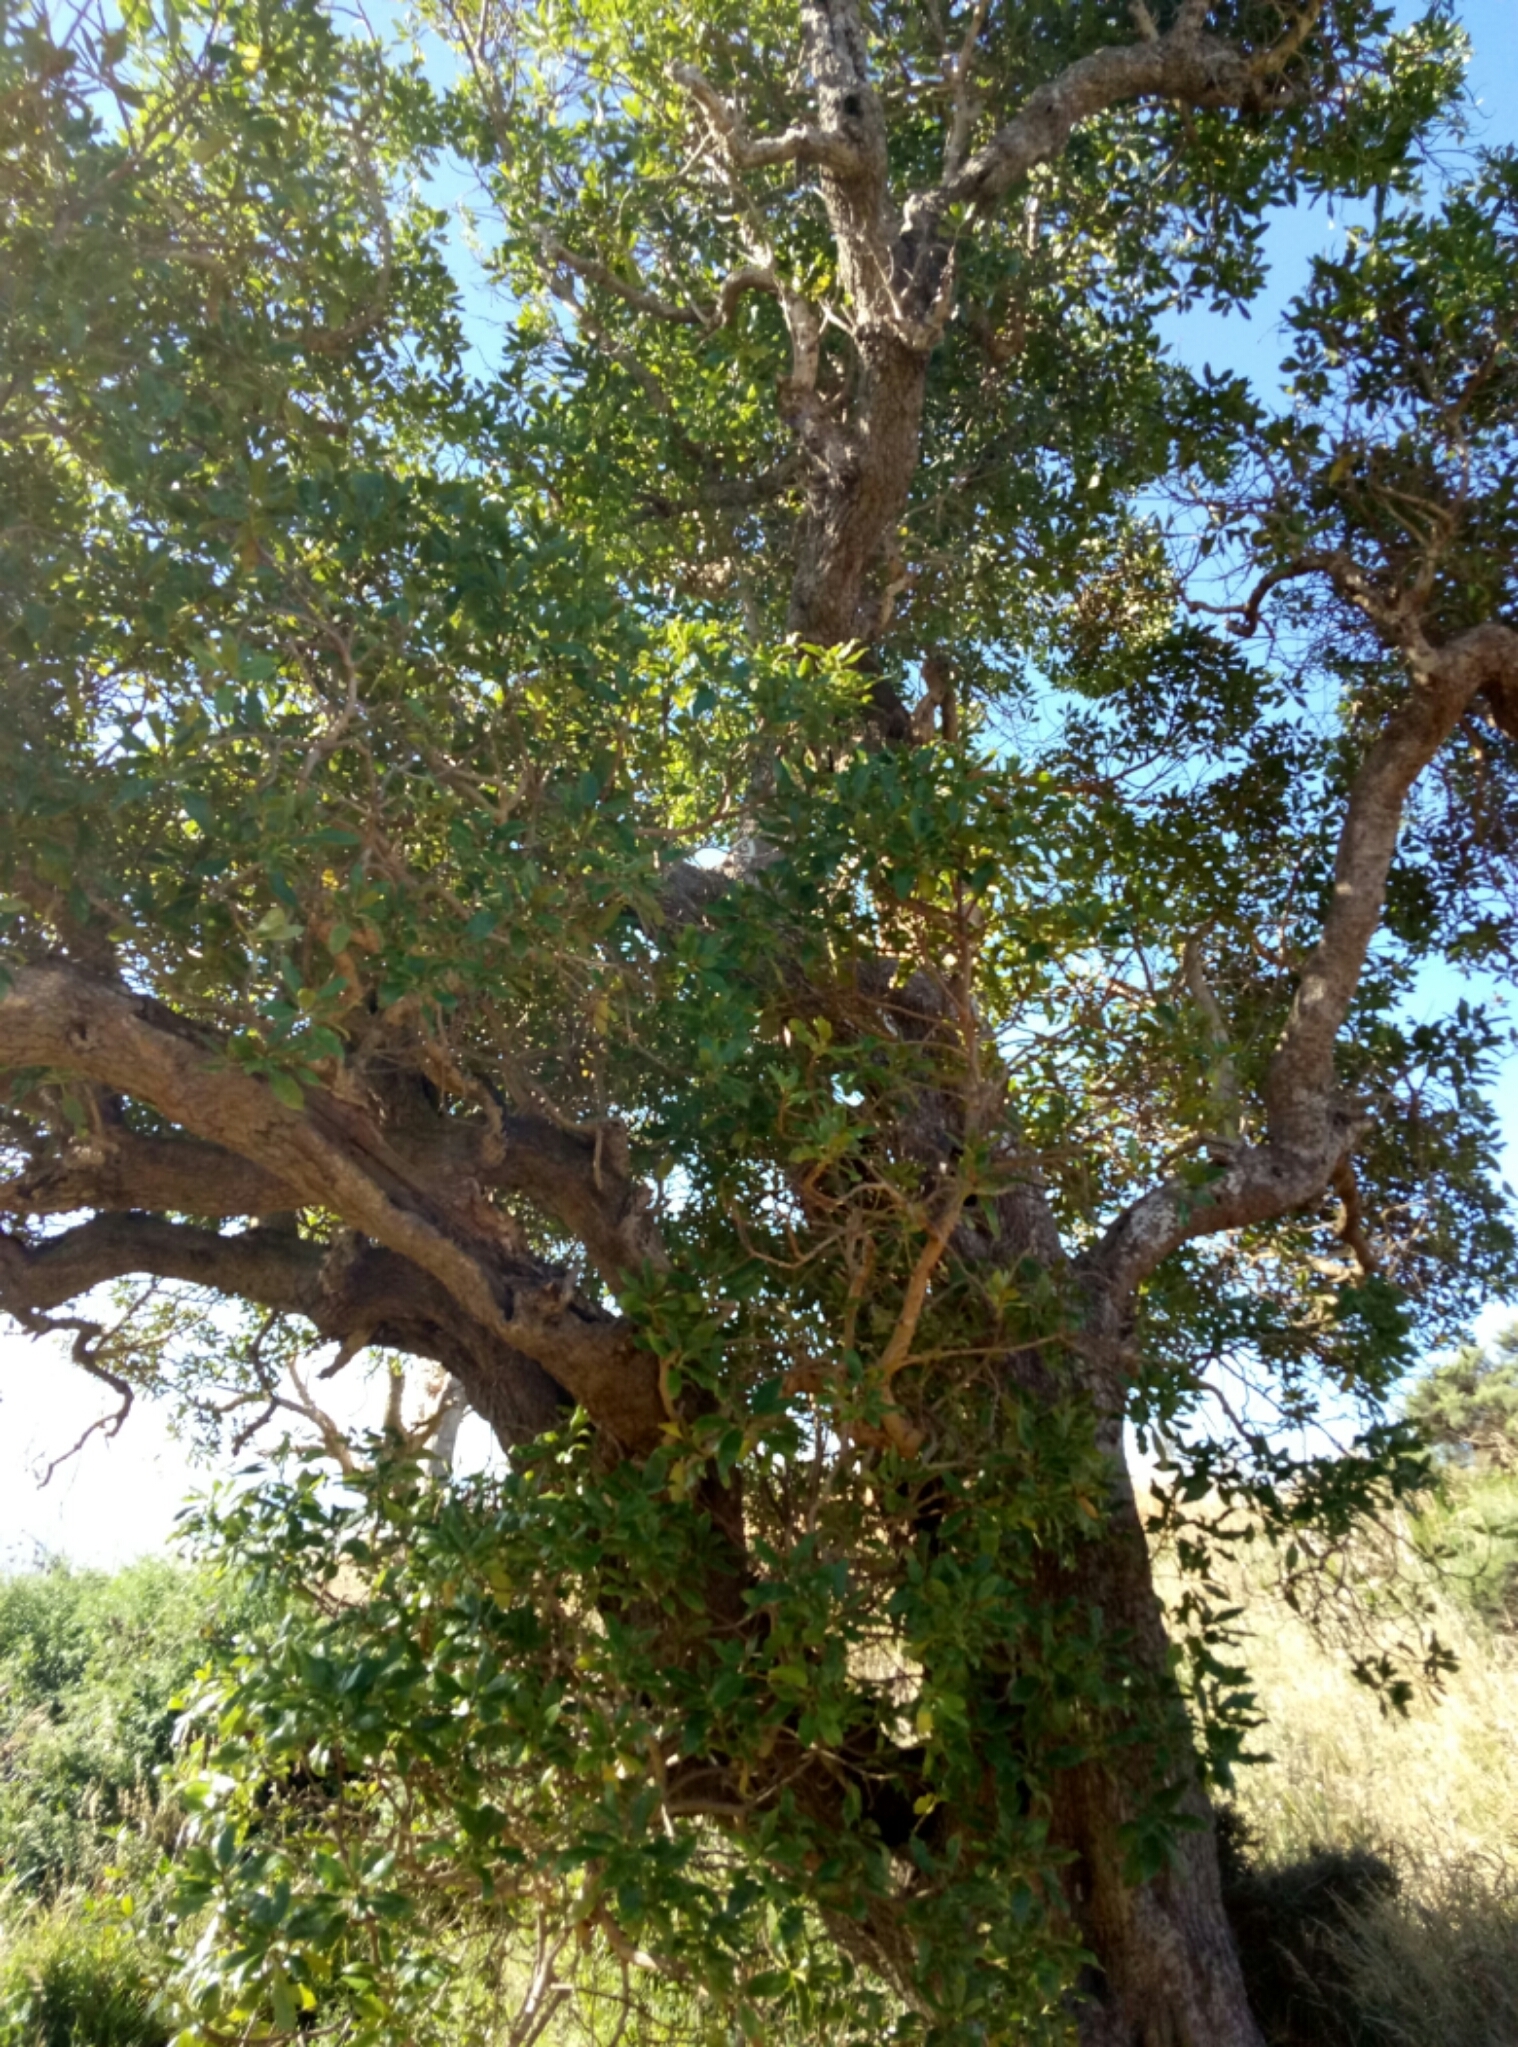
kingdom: Plantae
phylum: Tracheophyta
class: Magnoliopsida
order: Lamiales
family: Scrophulariaceae
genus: Myoporum
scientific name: Myoporum laetum
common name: Ngaio tree
